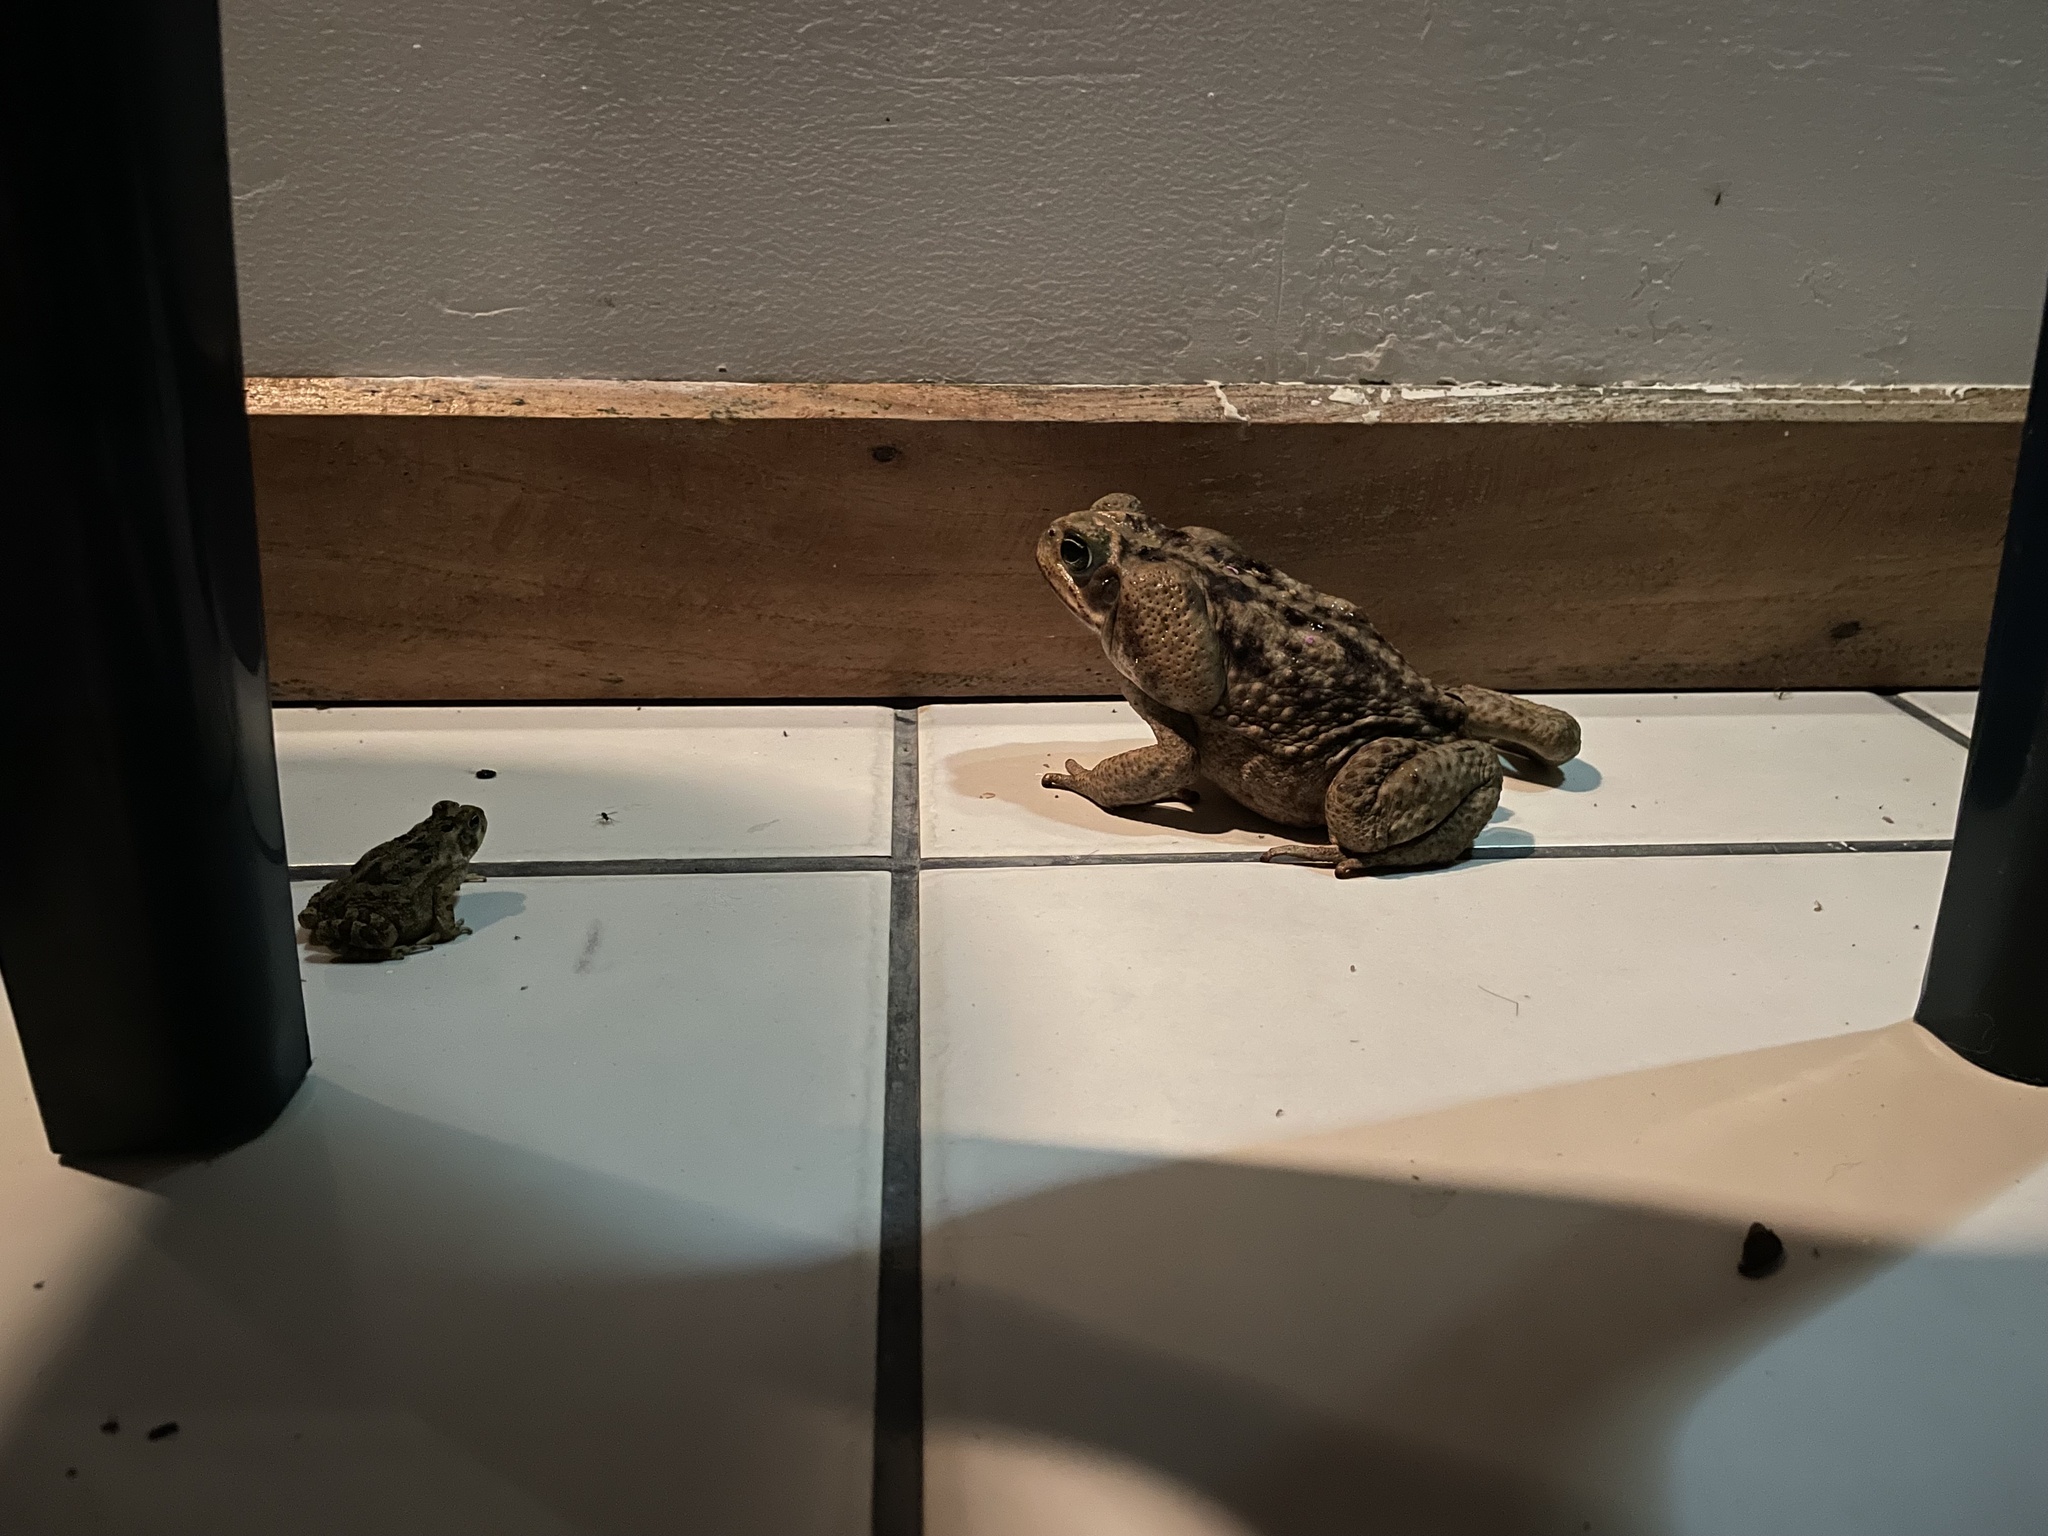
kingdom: Animalia
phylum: Chordata
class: Amphibia
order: Anura
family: Bufonidae
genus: Rhinella
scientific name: Rhinella horribilis
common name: Mesoamerican cane toad
